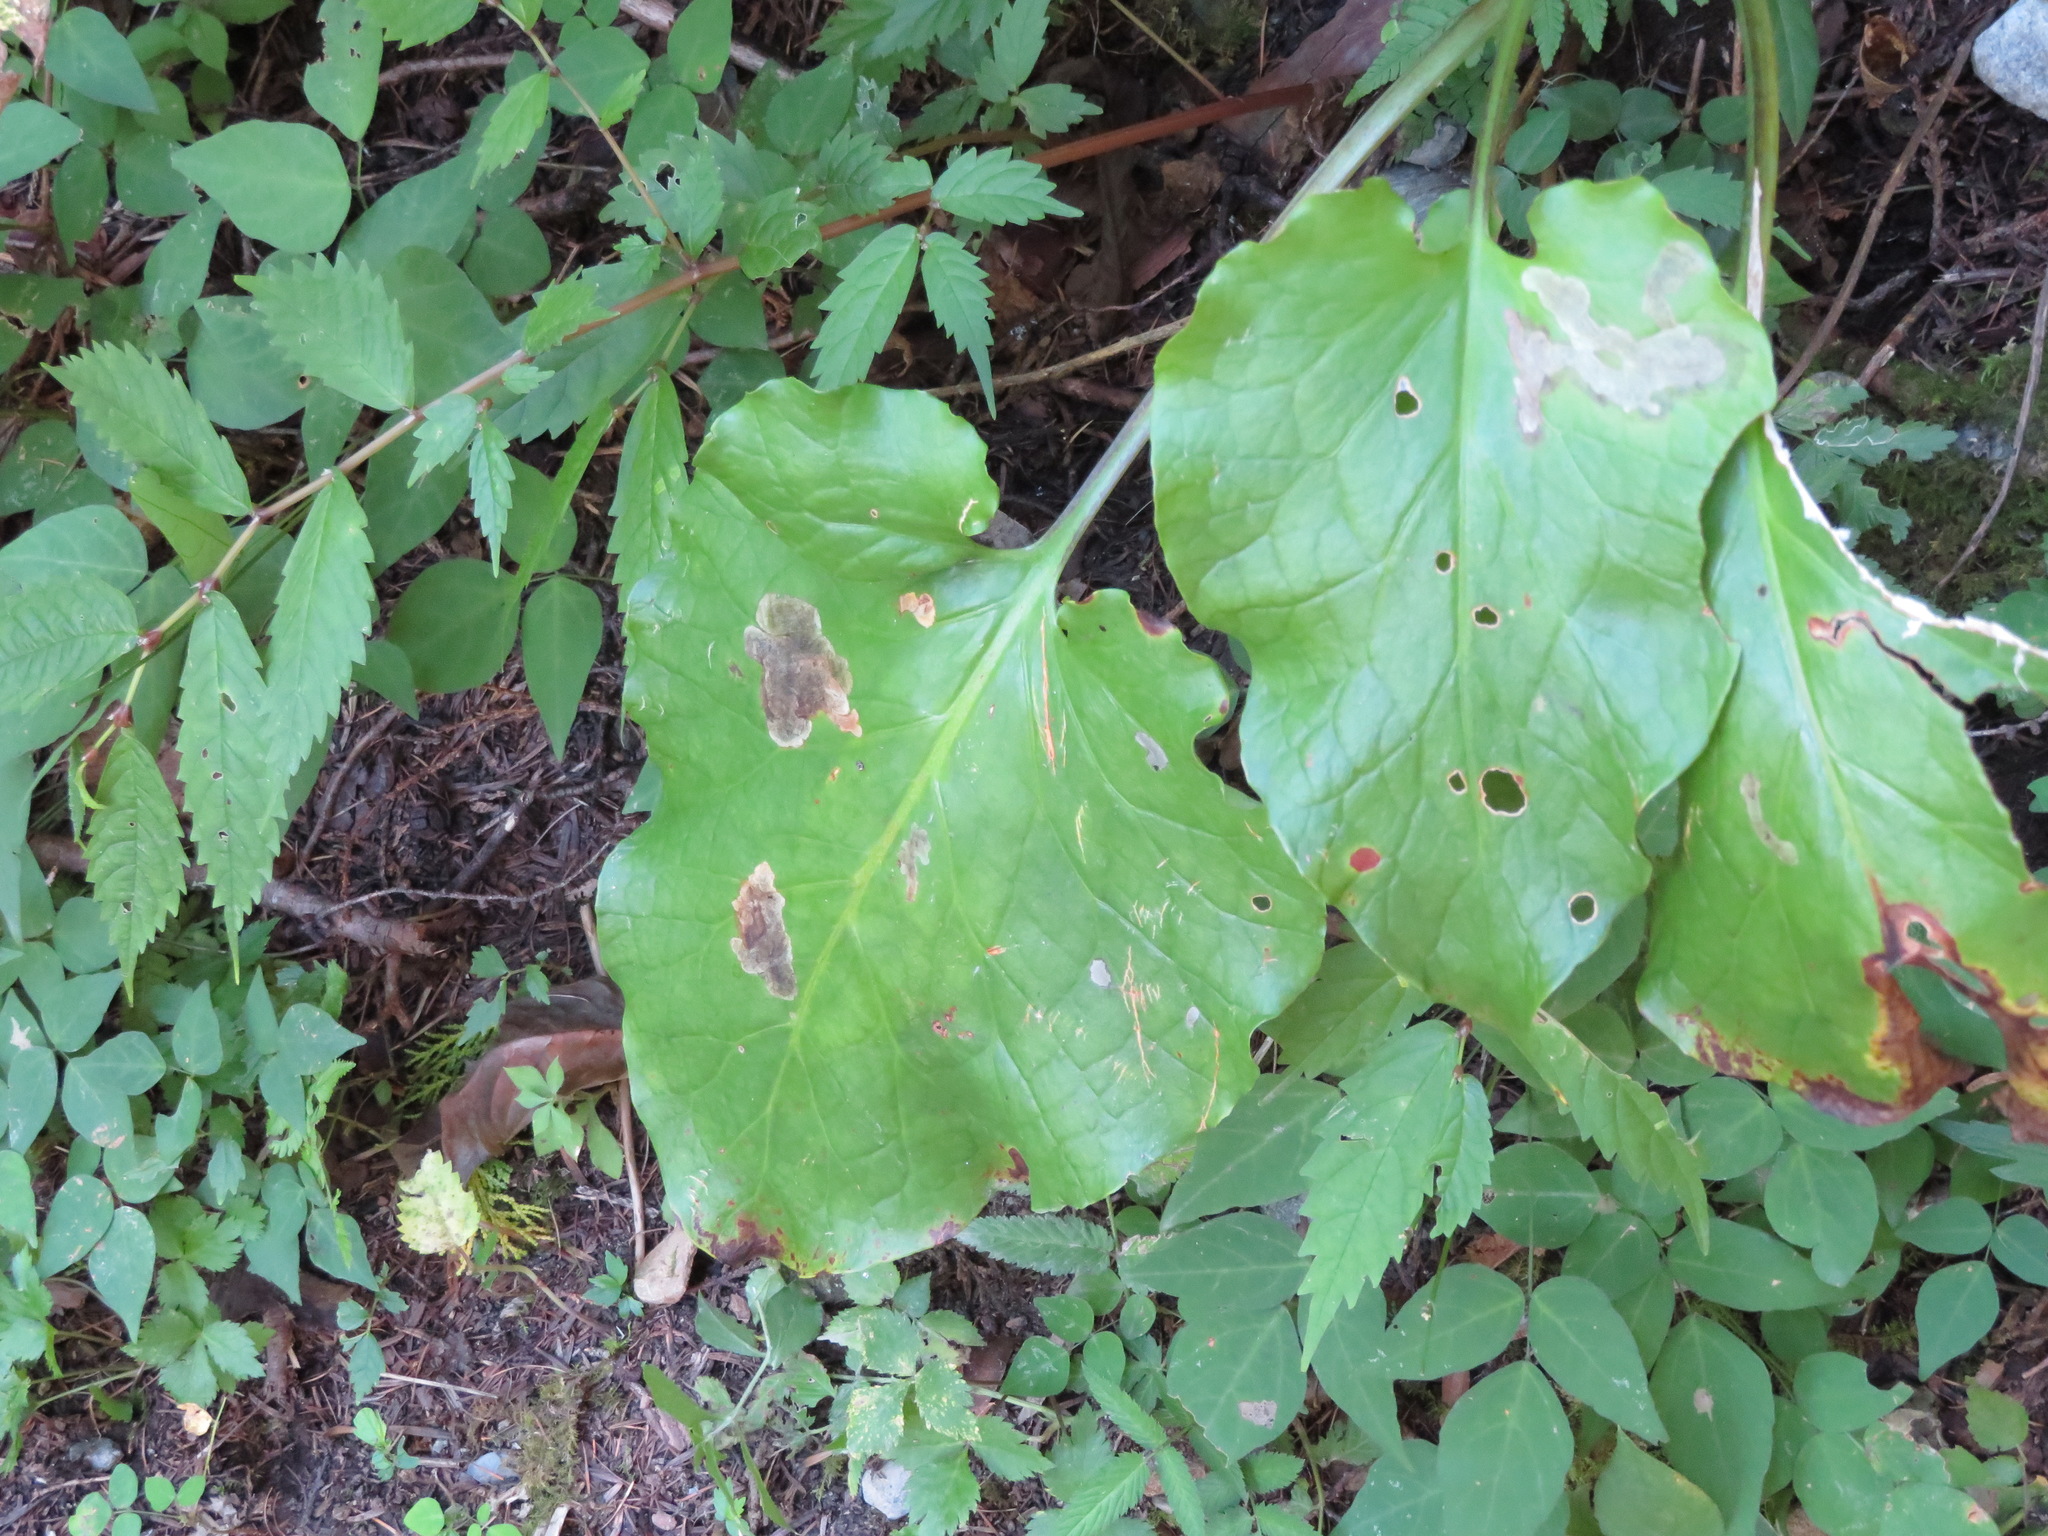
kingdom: Plantae
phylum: Tracheophyta
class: Liliopsida
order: Liliales
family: Liliaceae
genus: Cardiocrinum
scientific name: Cardiocrinum cordatum
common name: Lily
